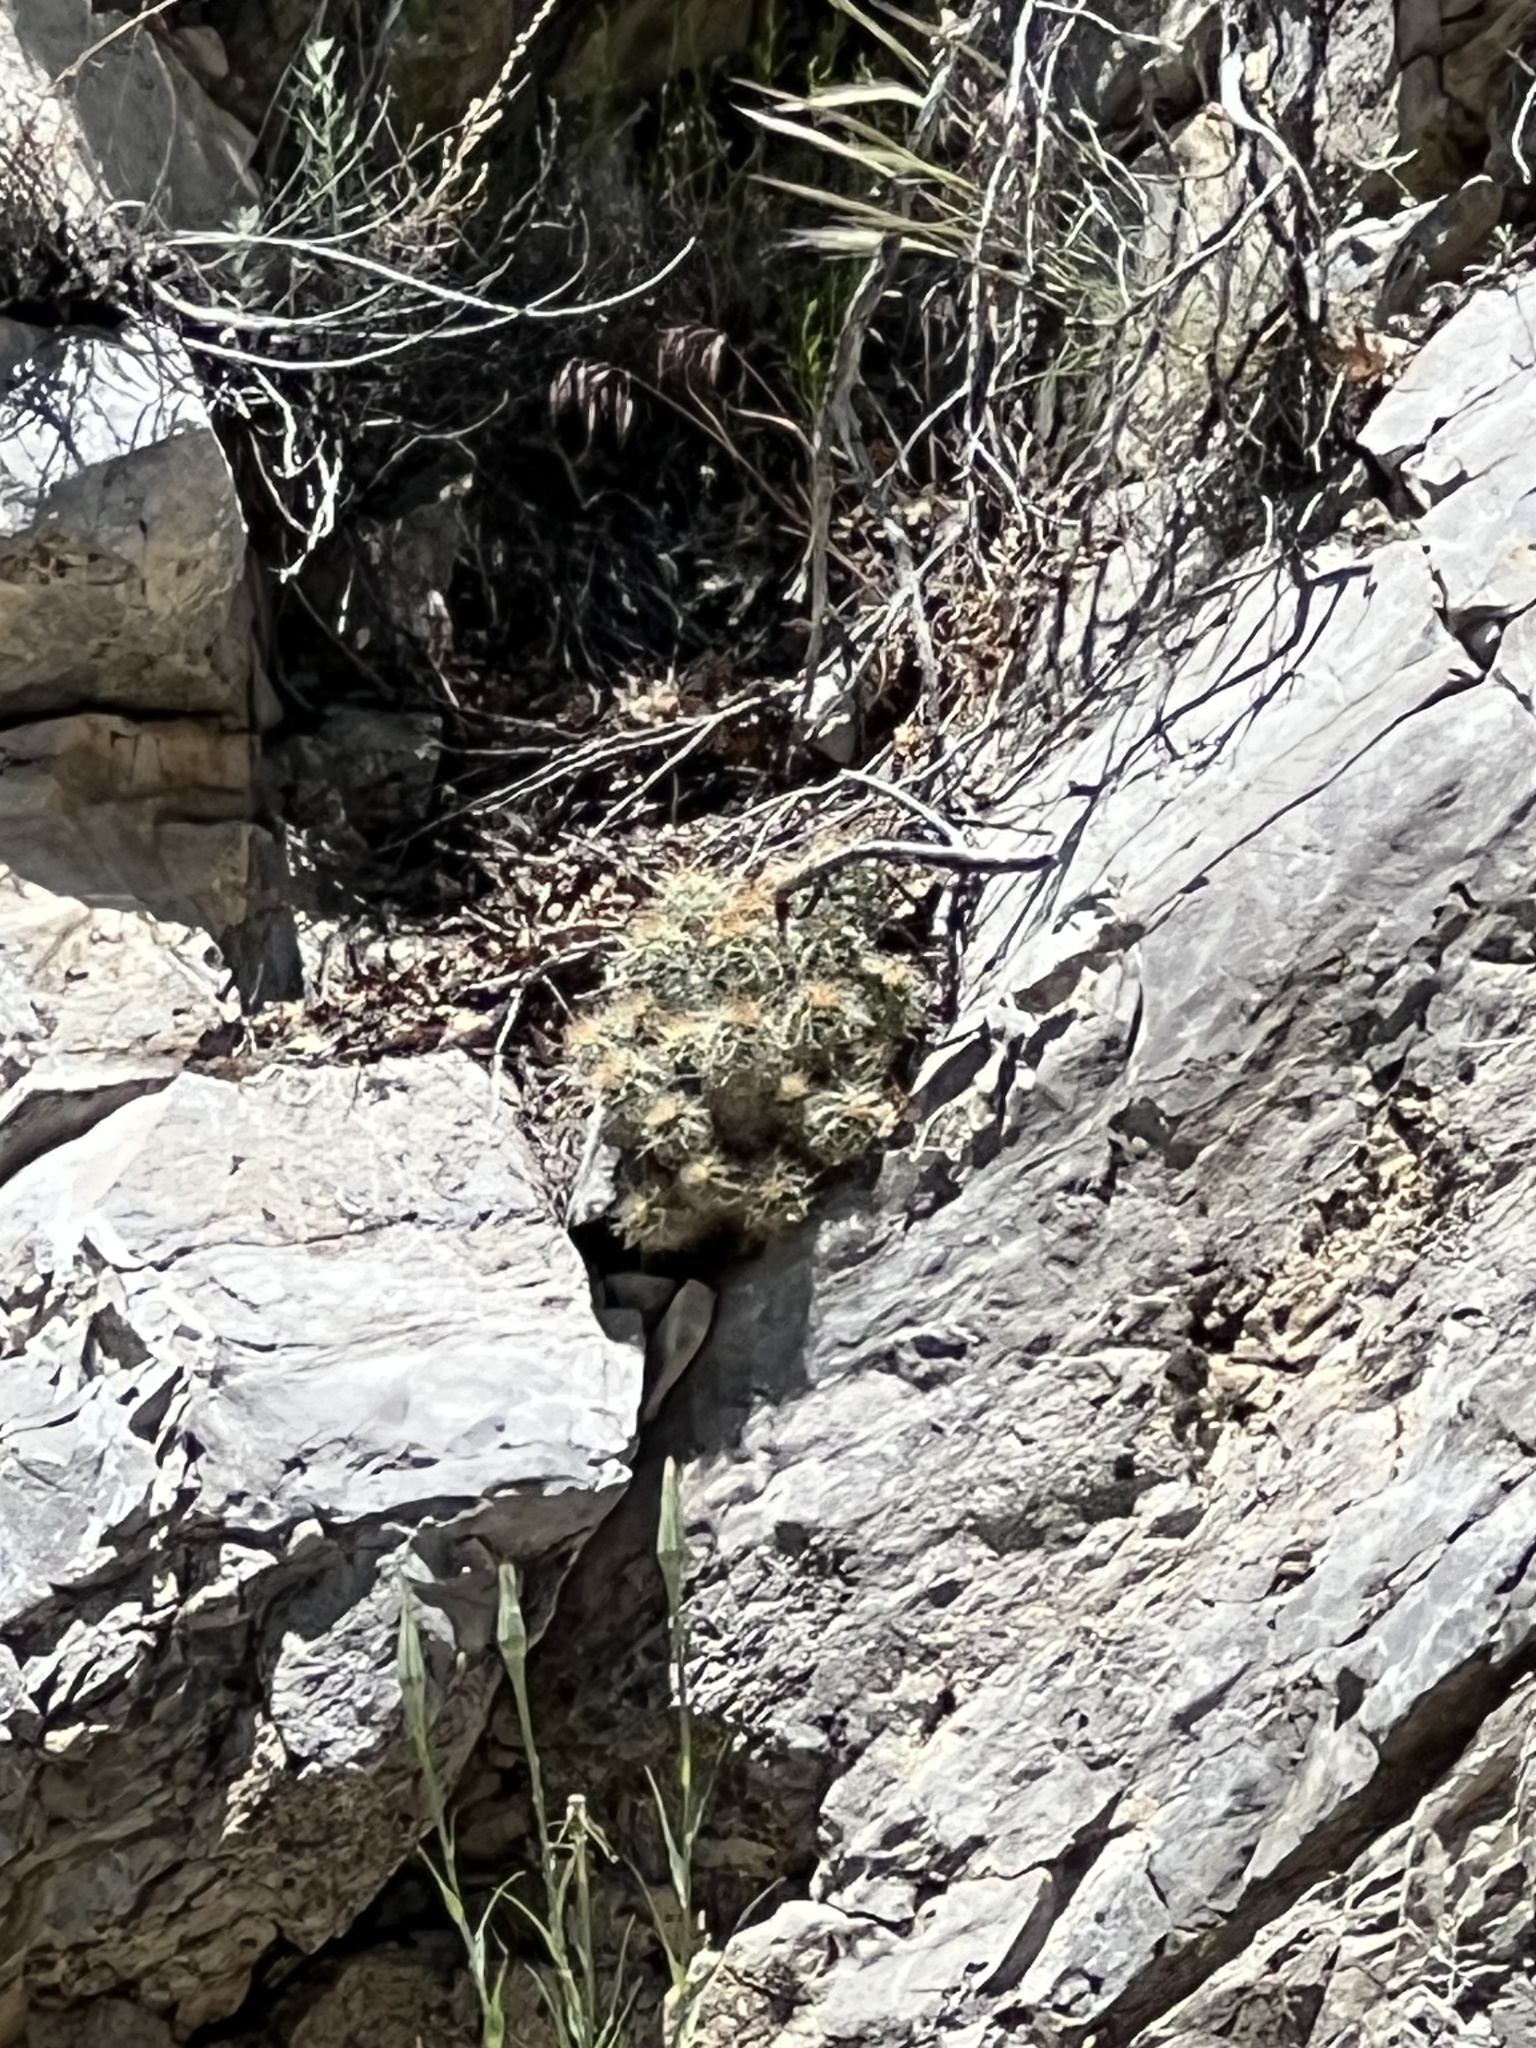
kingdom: Plantae
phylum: Tracheophyta
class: Magnoliopsida
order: Caryophyllales
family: Cactaceae
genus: Echinocereus
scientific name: Echinocereus triglochidiatus
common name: Claretcup hedgehog
